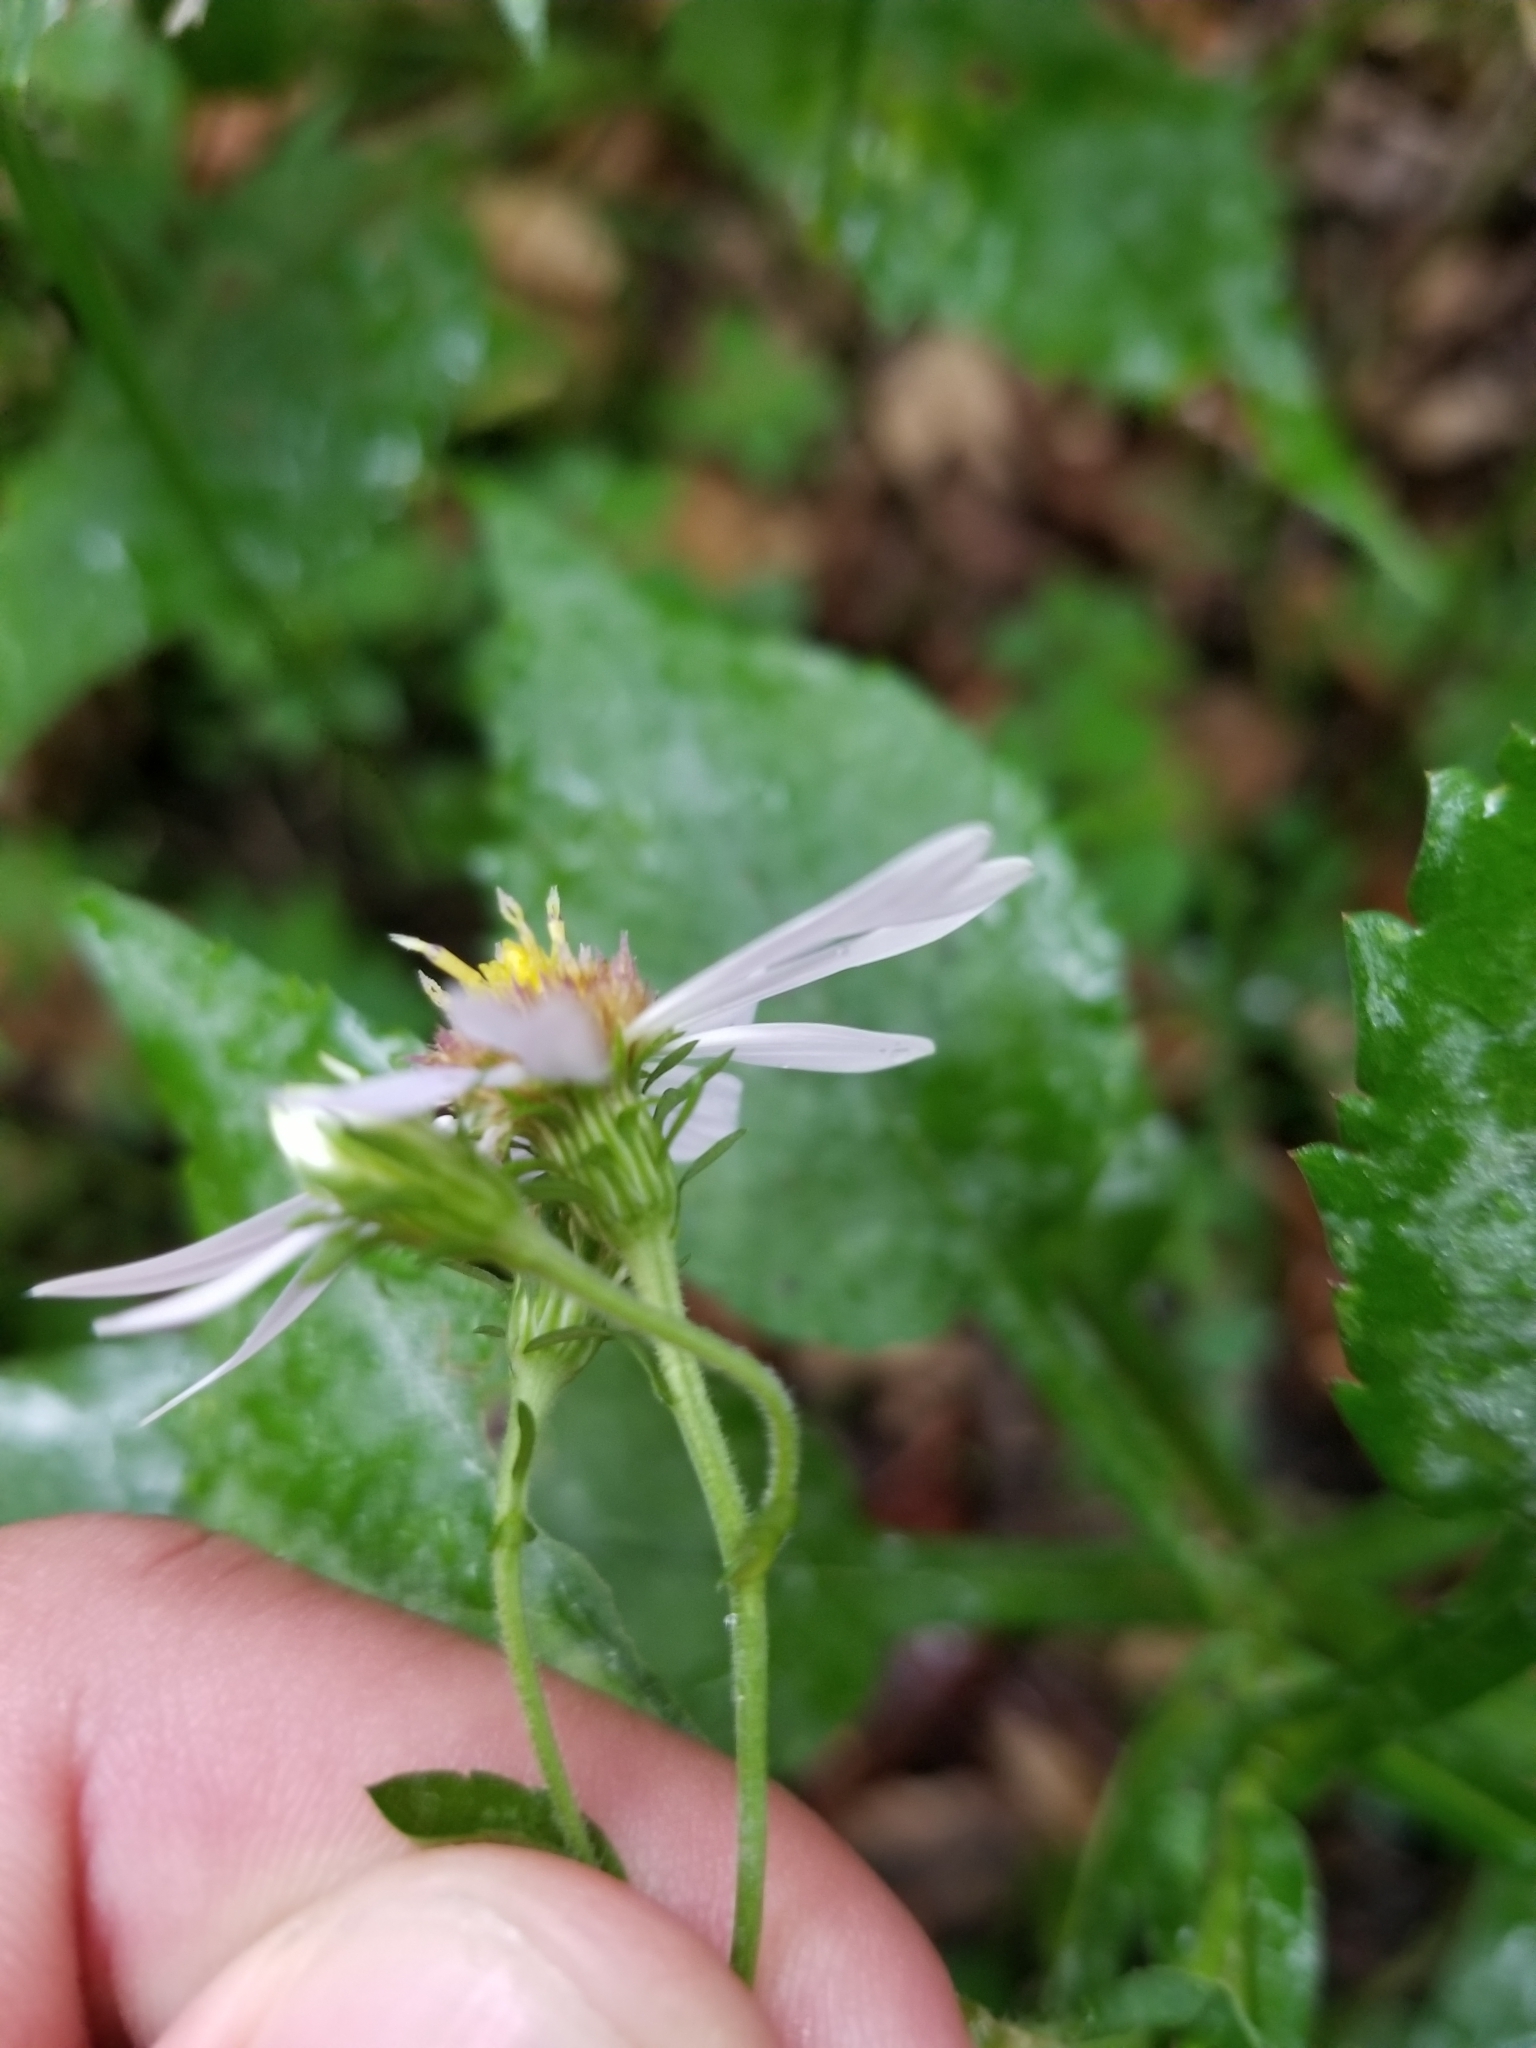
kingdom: Plantae
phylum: Tracheophyta
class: Magnoliopsida
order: Asterales
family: Asteraceae
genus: Symphyotrichum
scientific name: Symphyotrichum prenanthoides
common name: Crooked-stem aster
